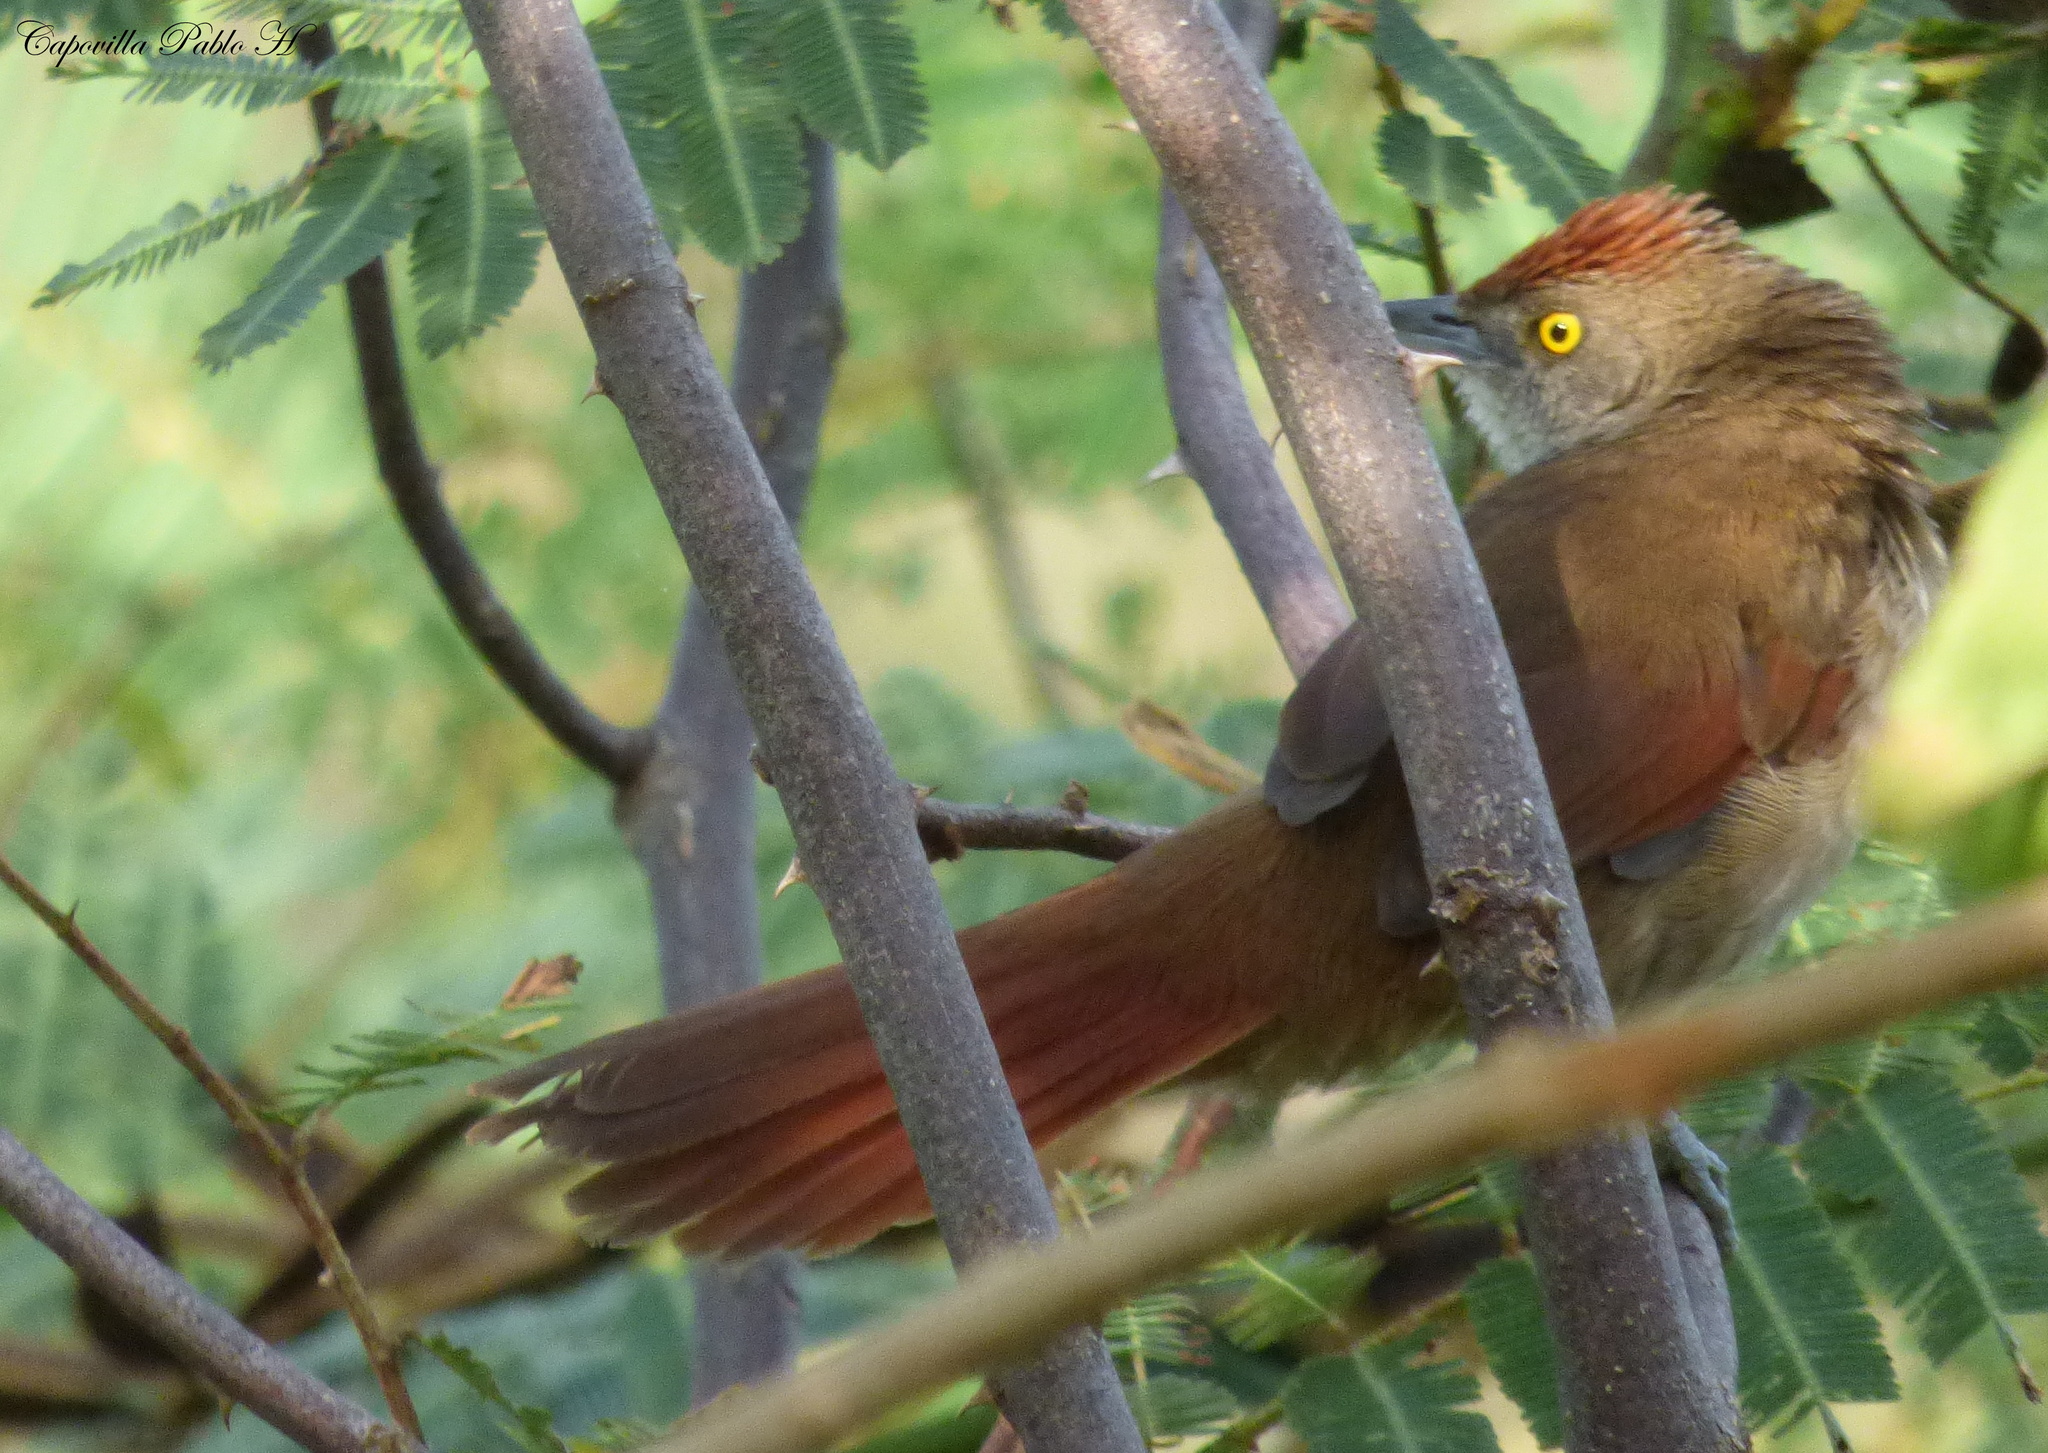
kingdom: Animalia
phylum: Chordata
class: Aves
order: Passeriformes
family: Furnariidae
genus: Phacellodomus
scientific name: Phacellodomus ruber
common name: Greater thornbird
